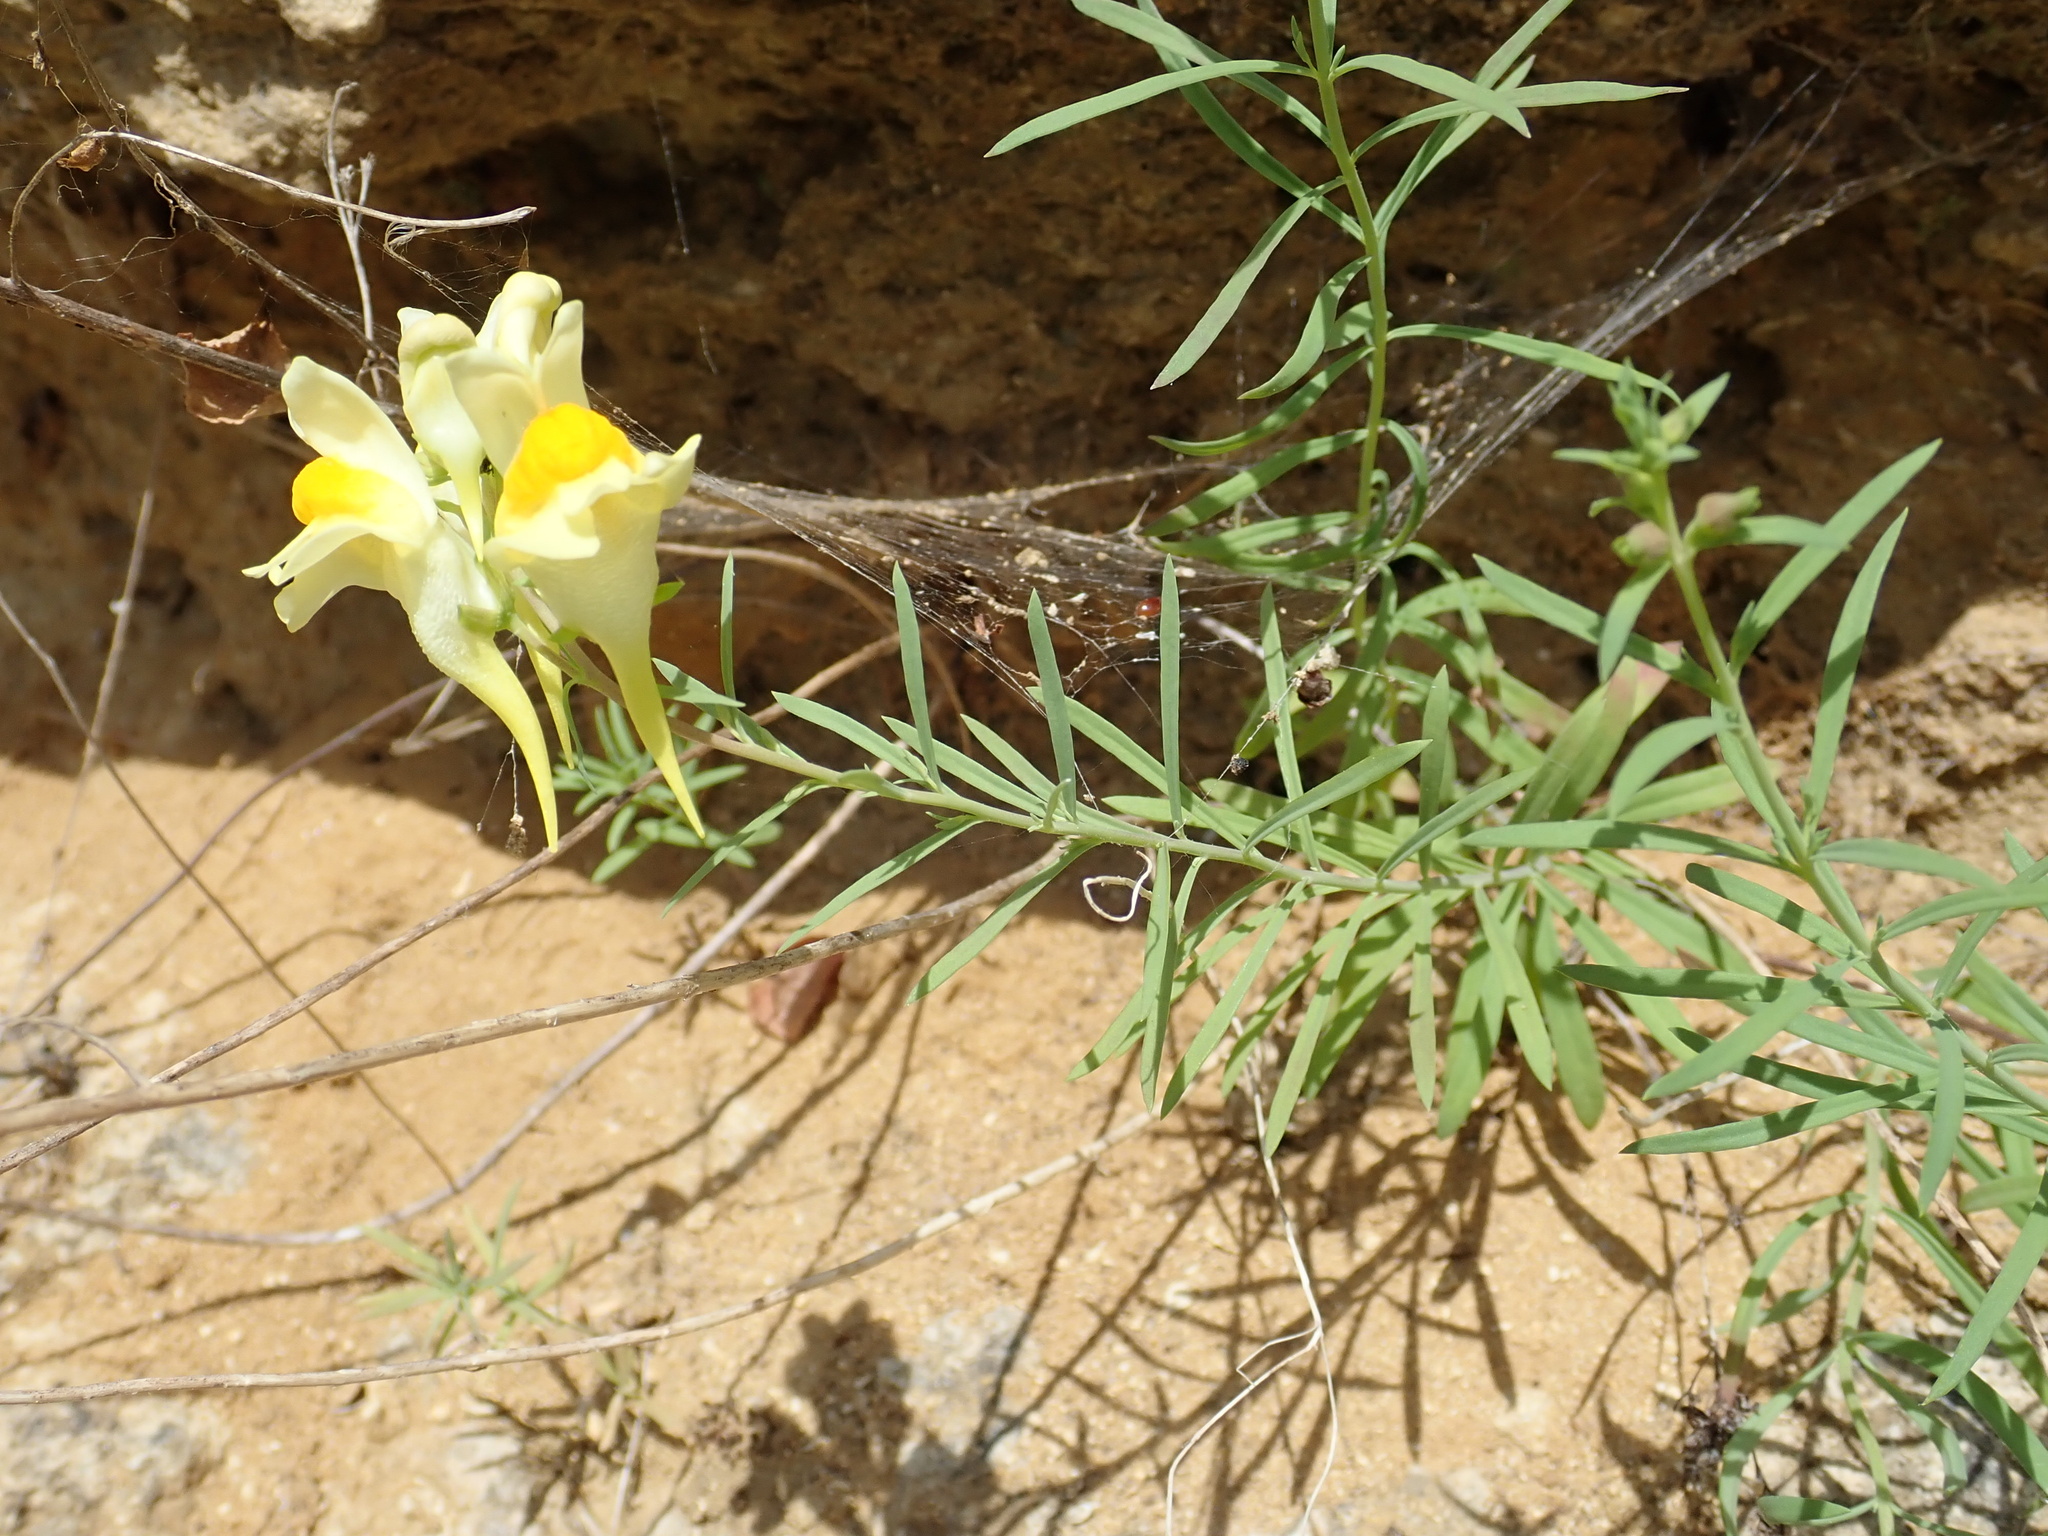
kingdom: Plantae
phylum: Tracheophyta
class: Magnoliopsida
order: Lamiales
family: Plantaginaceae
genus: Linaria
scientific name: Linaria vulgaris
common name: Butter and eggs
